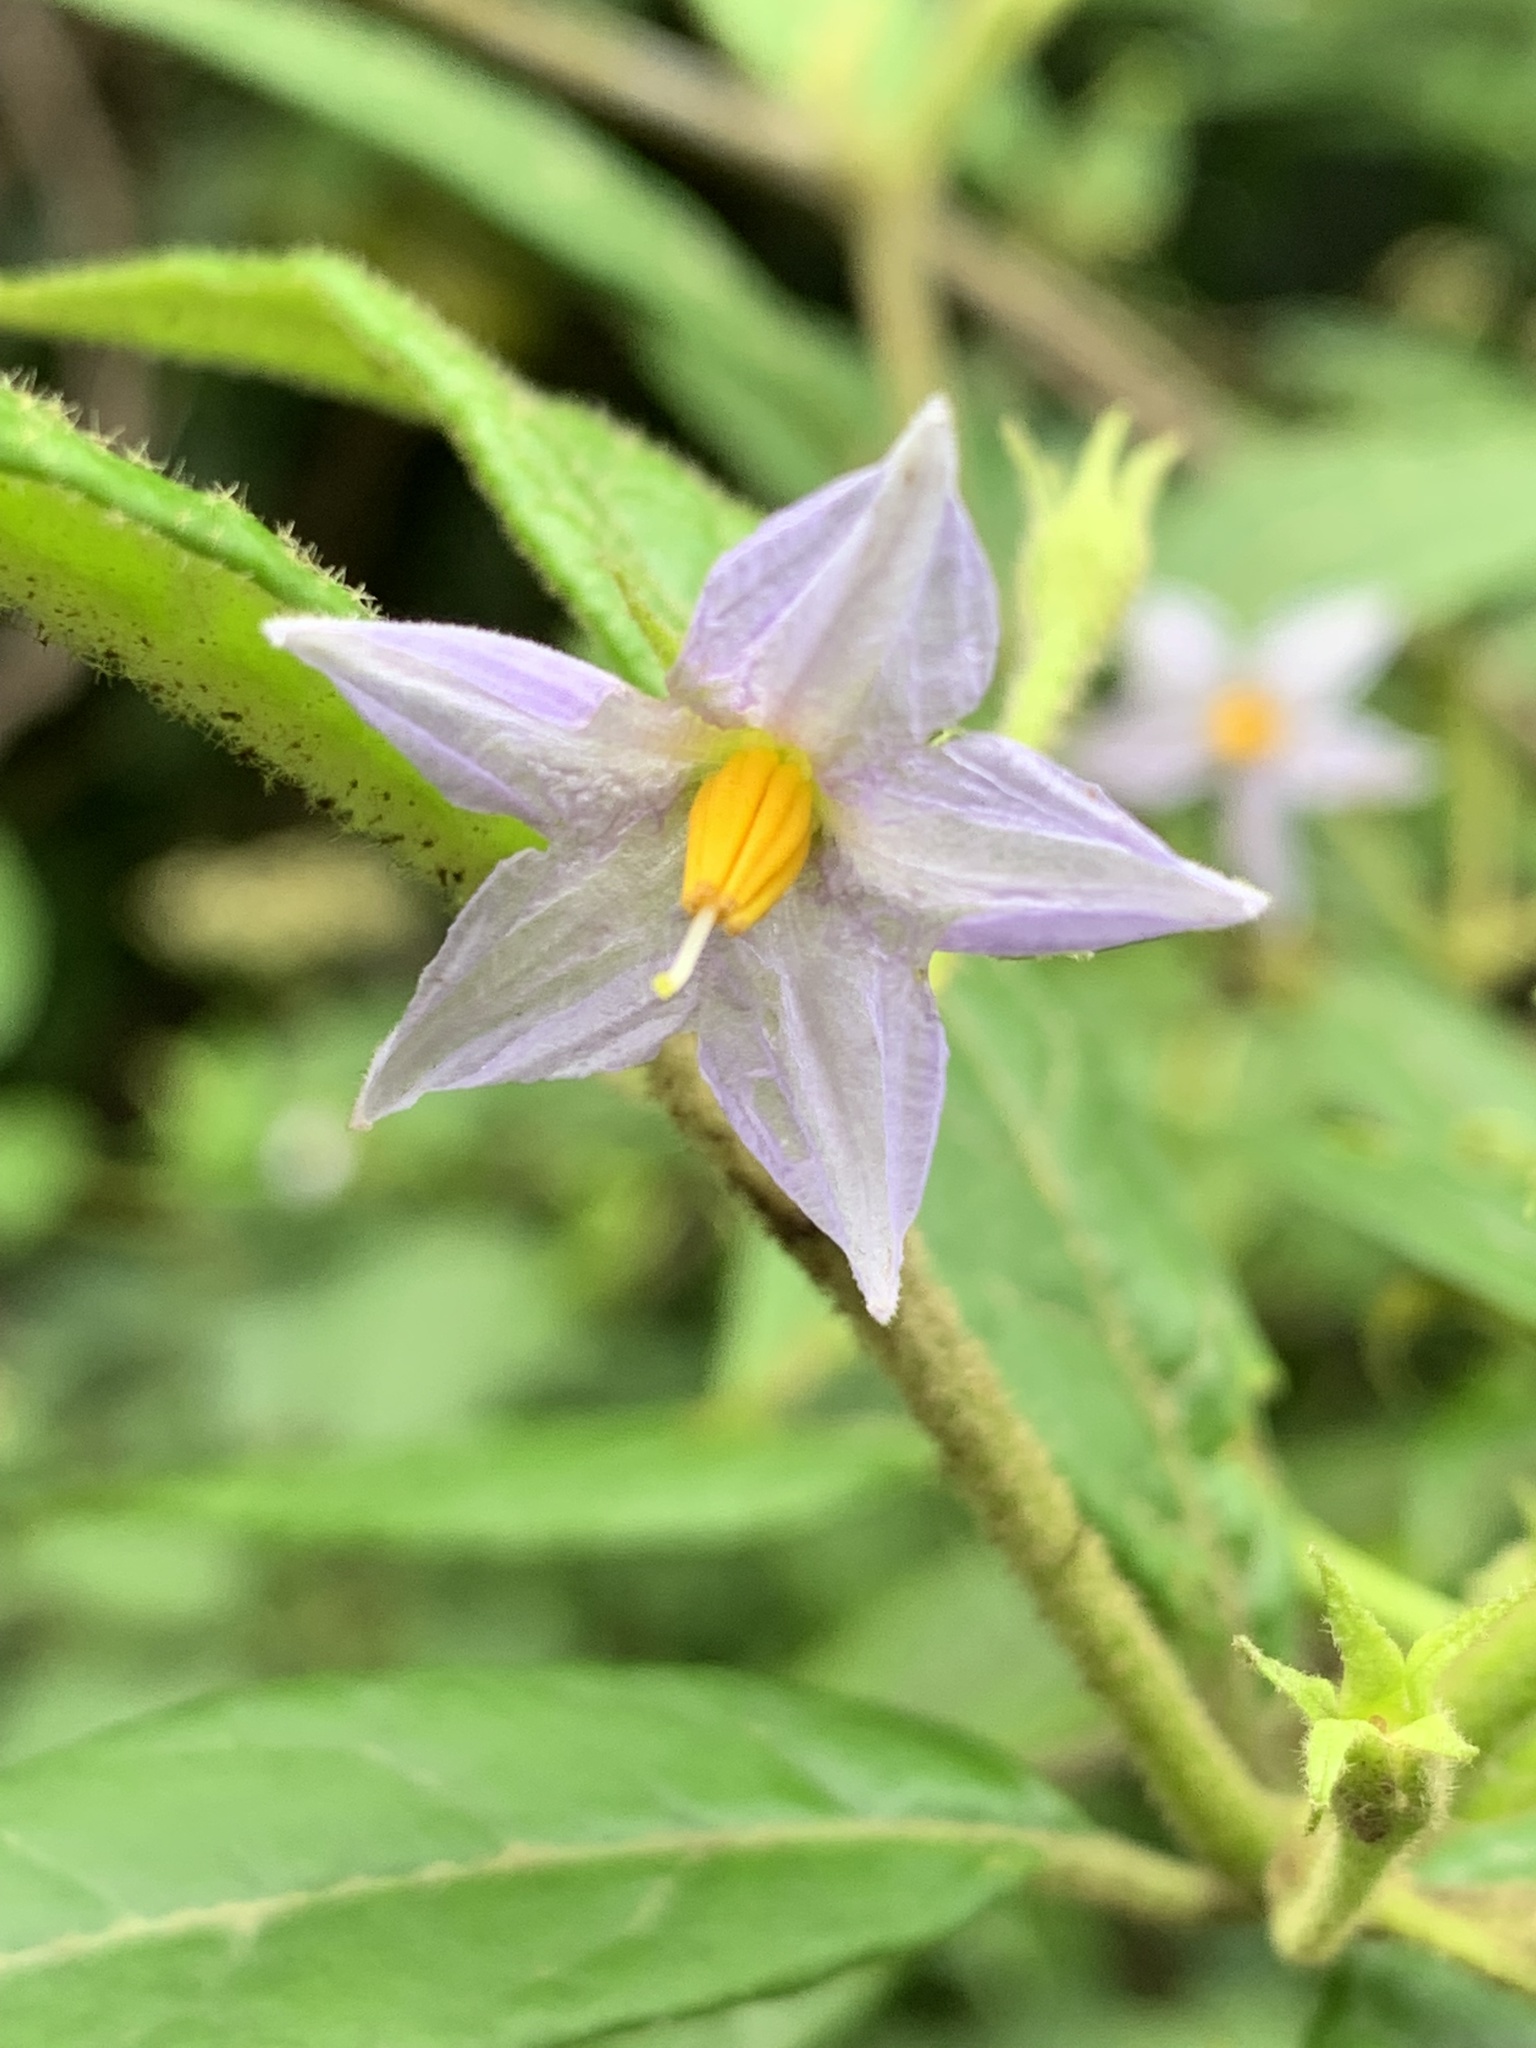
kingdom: Plantae
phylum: Tracheophyta
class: Magnoliopsida
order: Solanales
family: Solanaceae
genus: Solanum
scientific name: Solanum stelligerum
